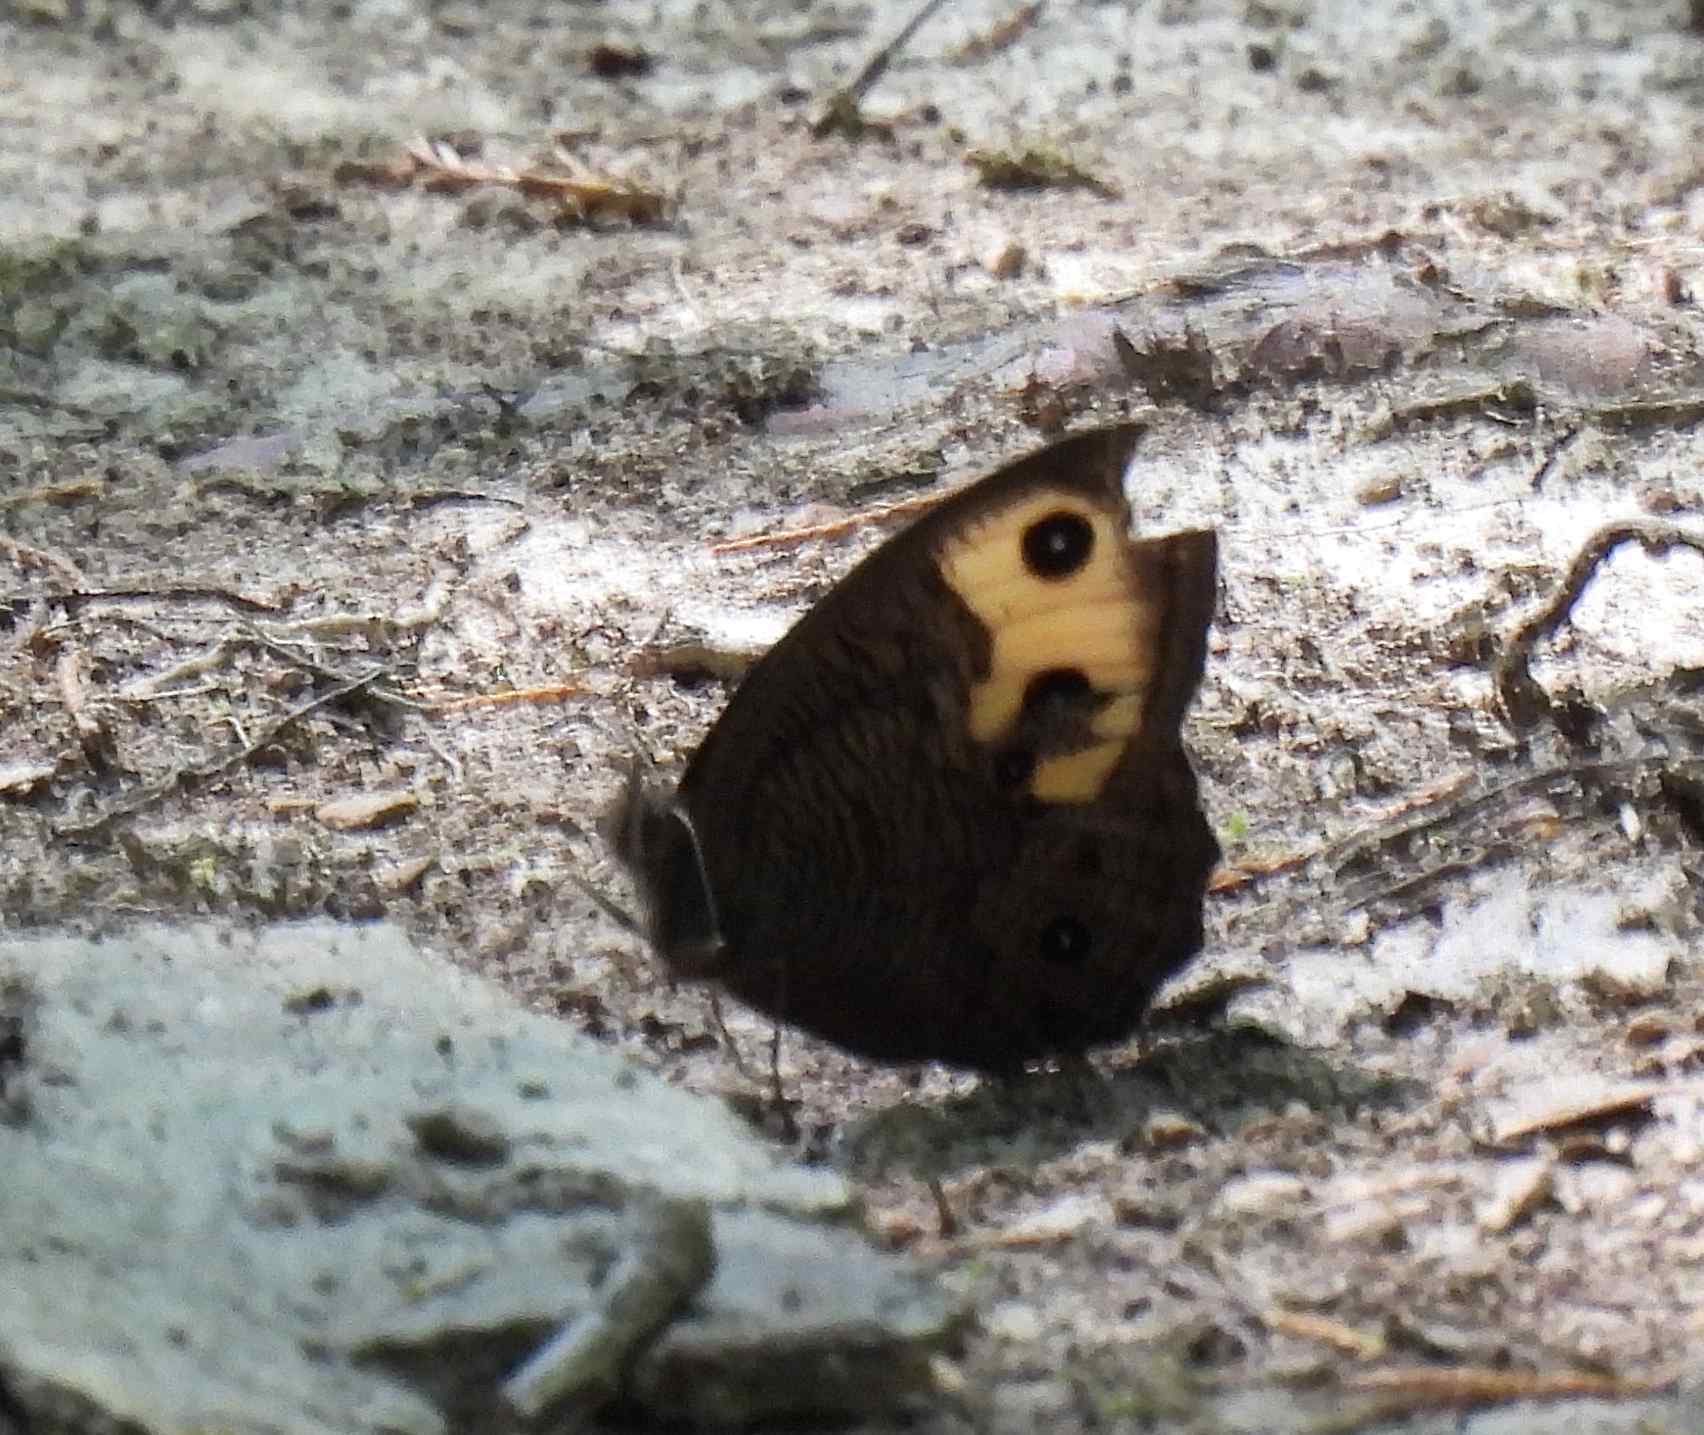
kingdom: Animalia
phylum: Arthropoda
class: Insecta
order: Lepidoptera
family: Nymphalidae
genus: Cercyonis
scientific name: Cercyonis pegala
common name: Common wood-nymph
